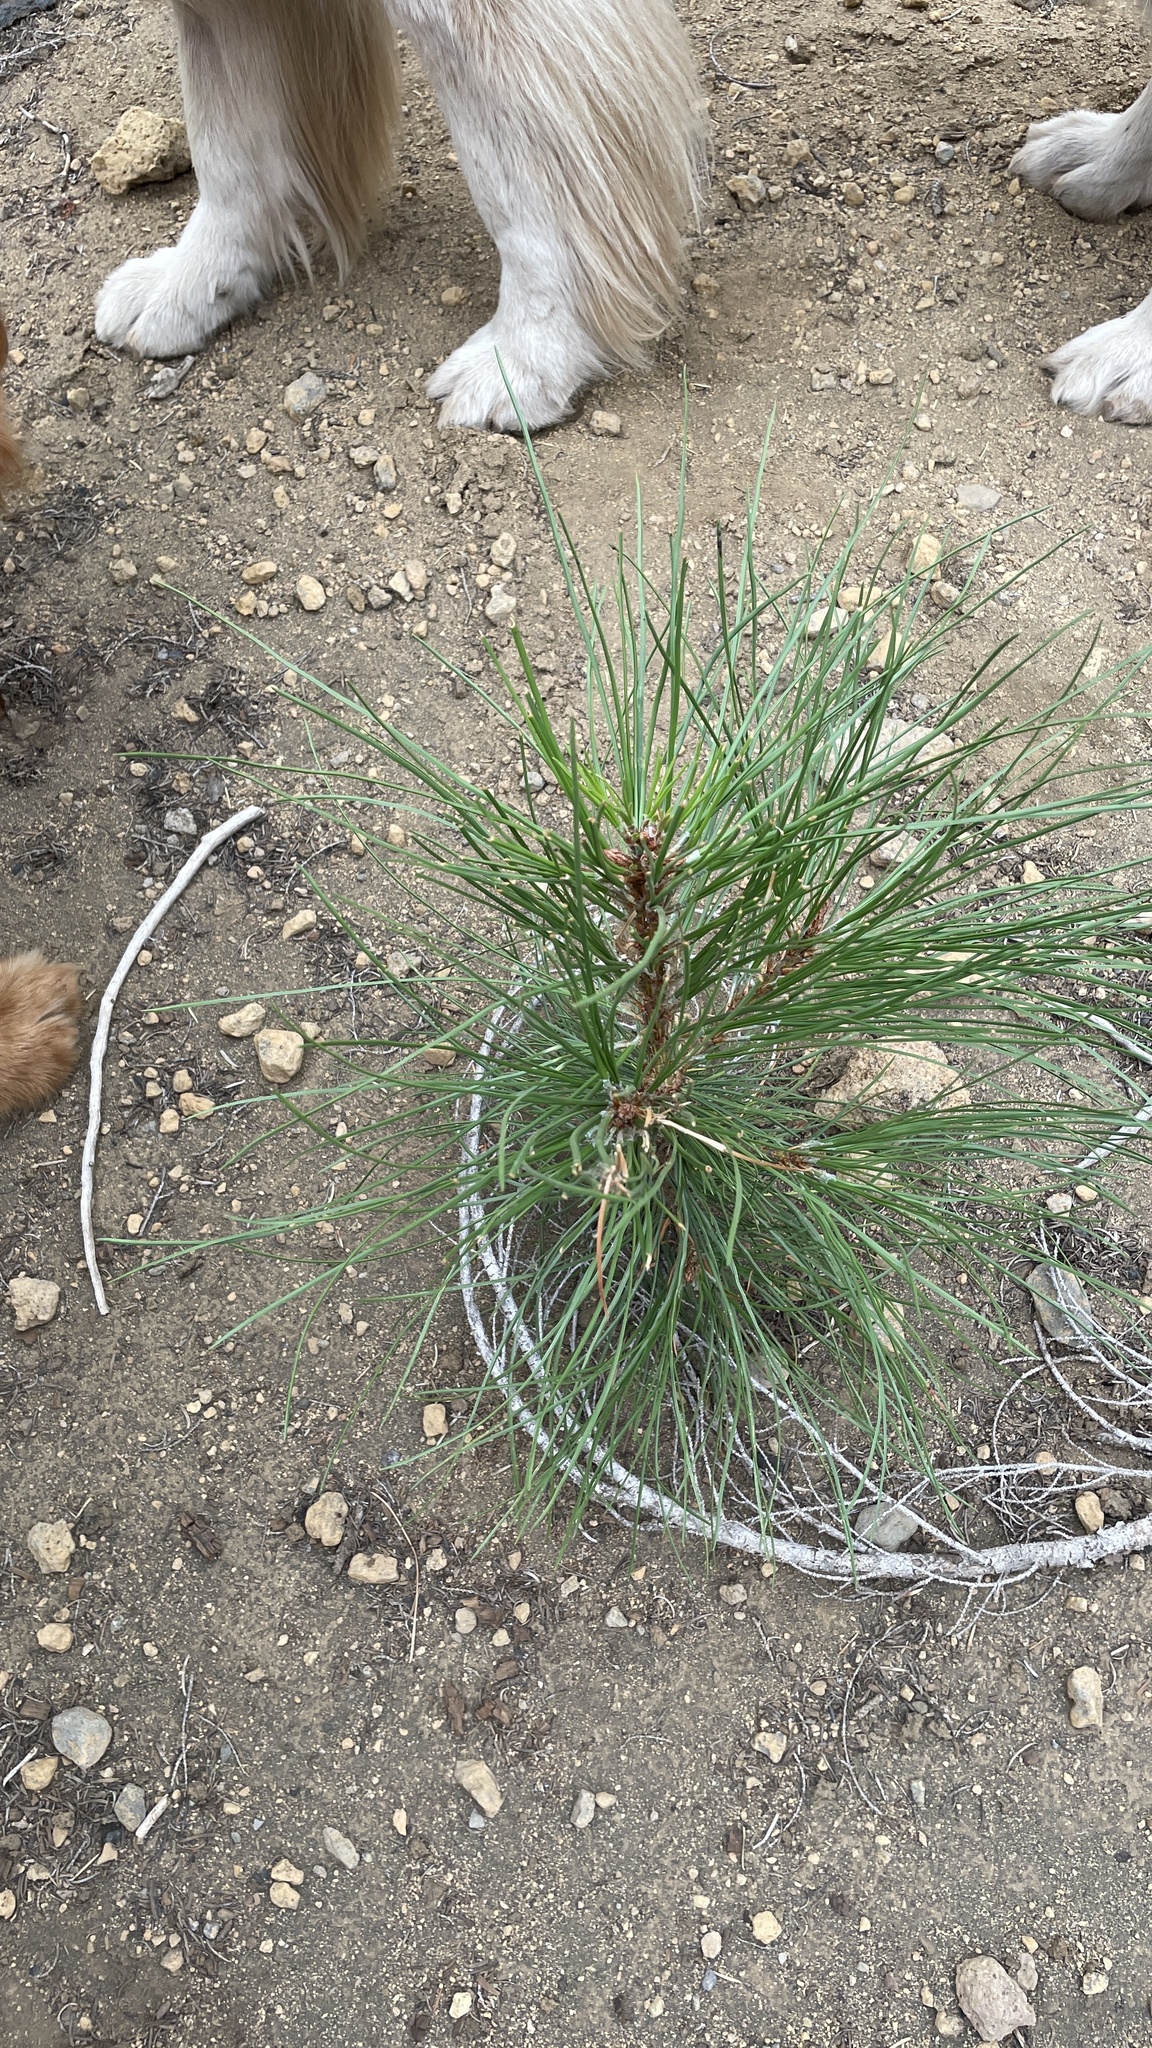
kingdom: Plantae
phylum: Tracheophyta
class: Pinopsida
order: Pinales
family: Pinaceae
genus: Pinus
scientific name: Pinus ponderosa
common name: Western yellow-pine
